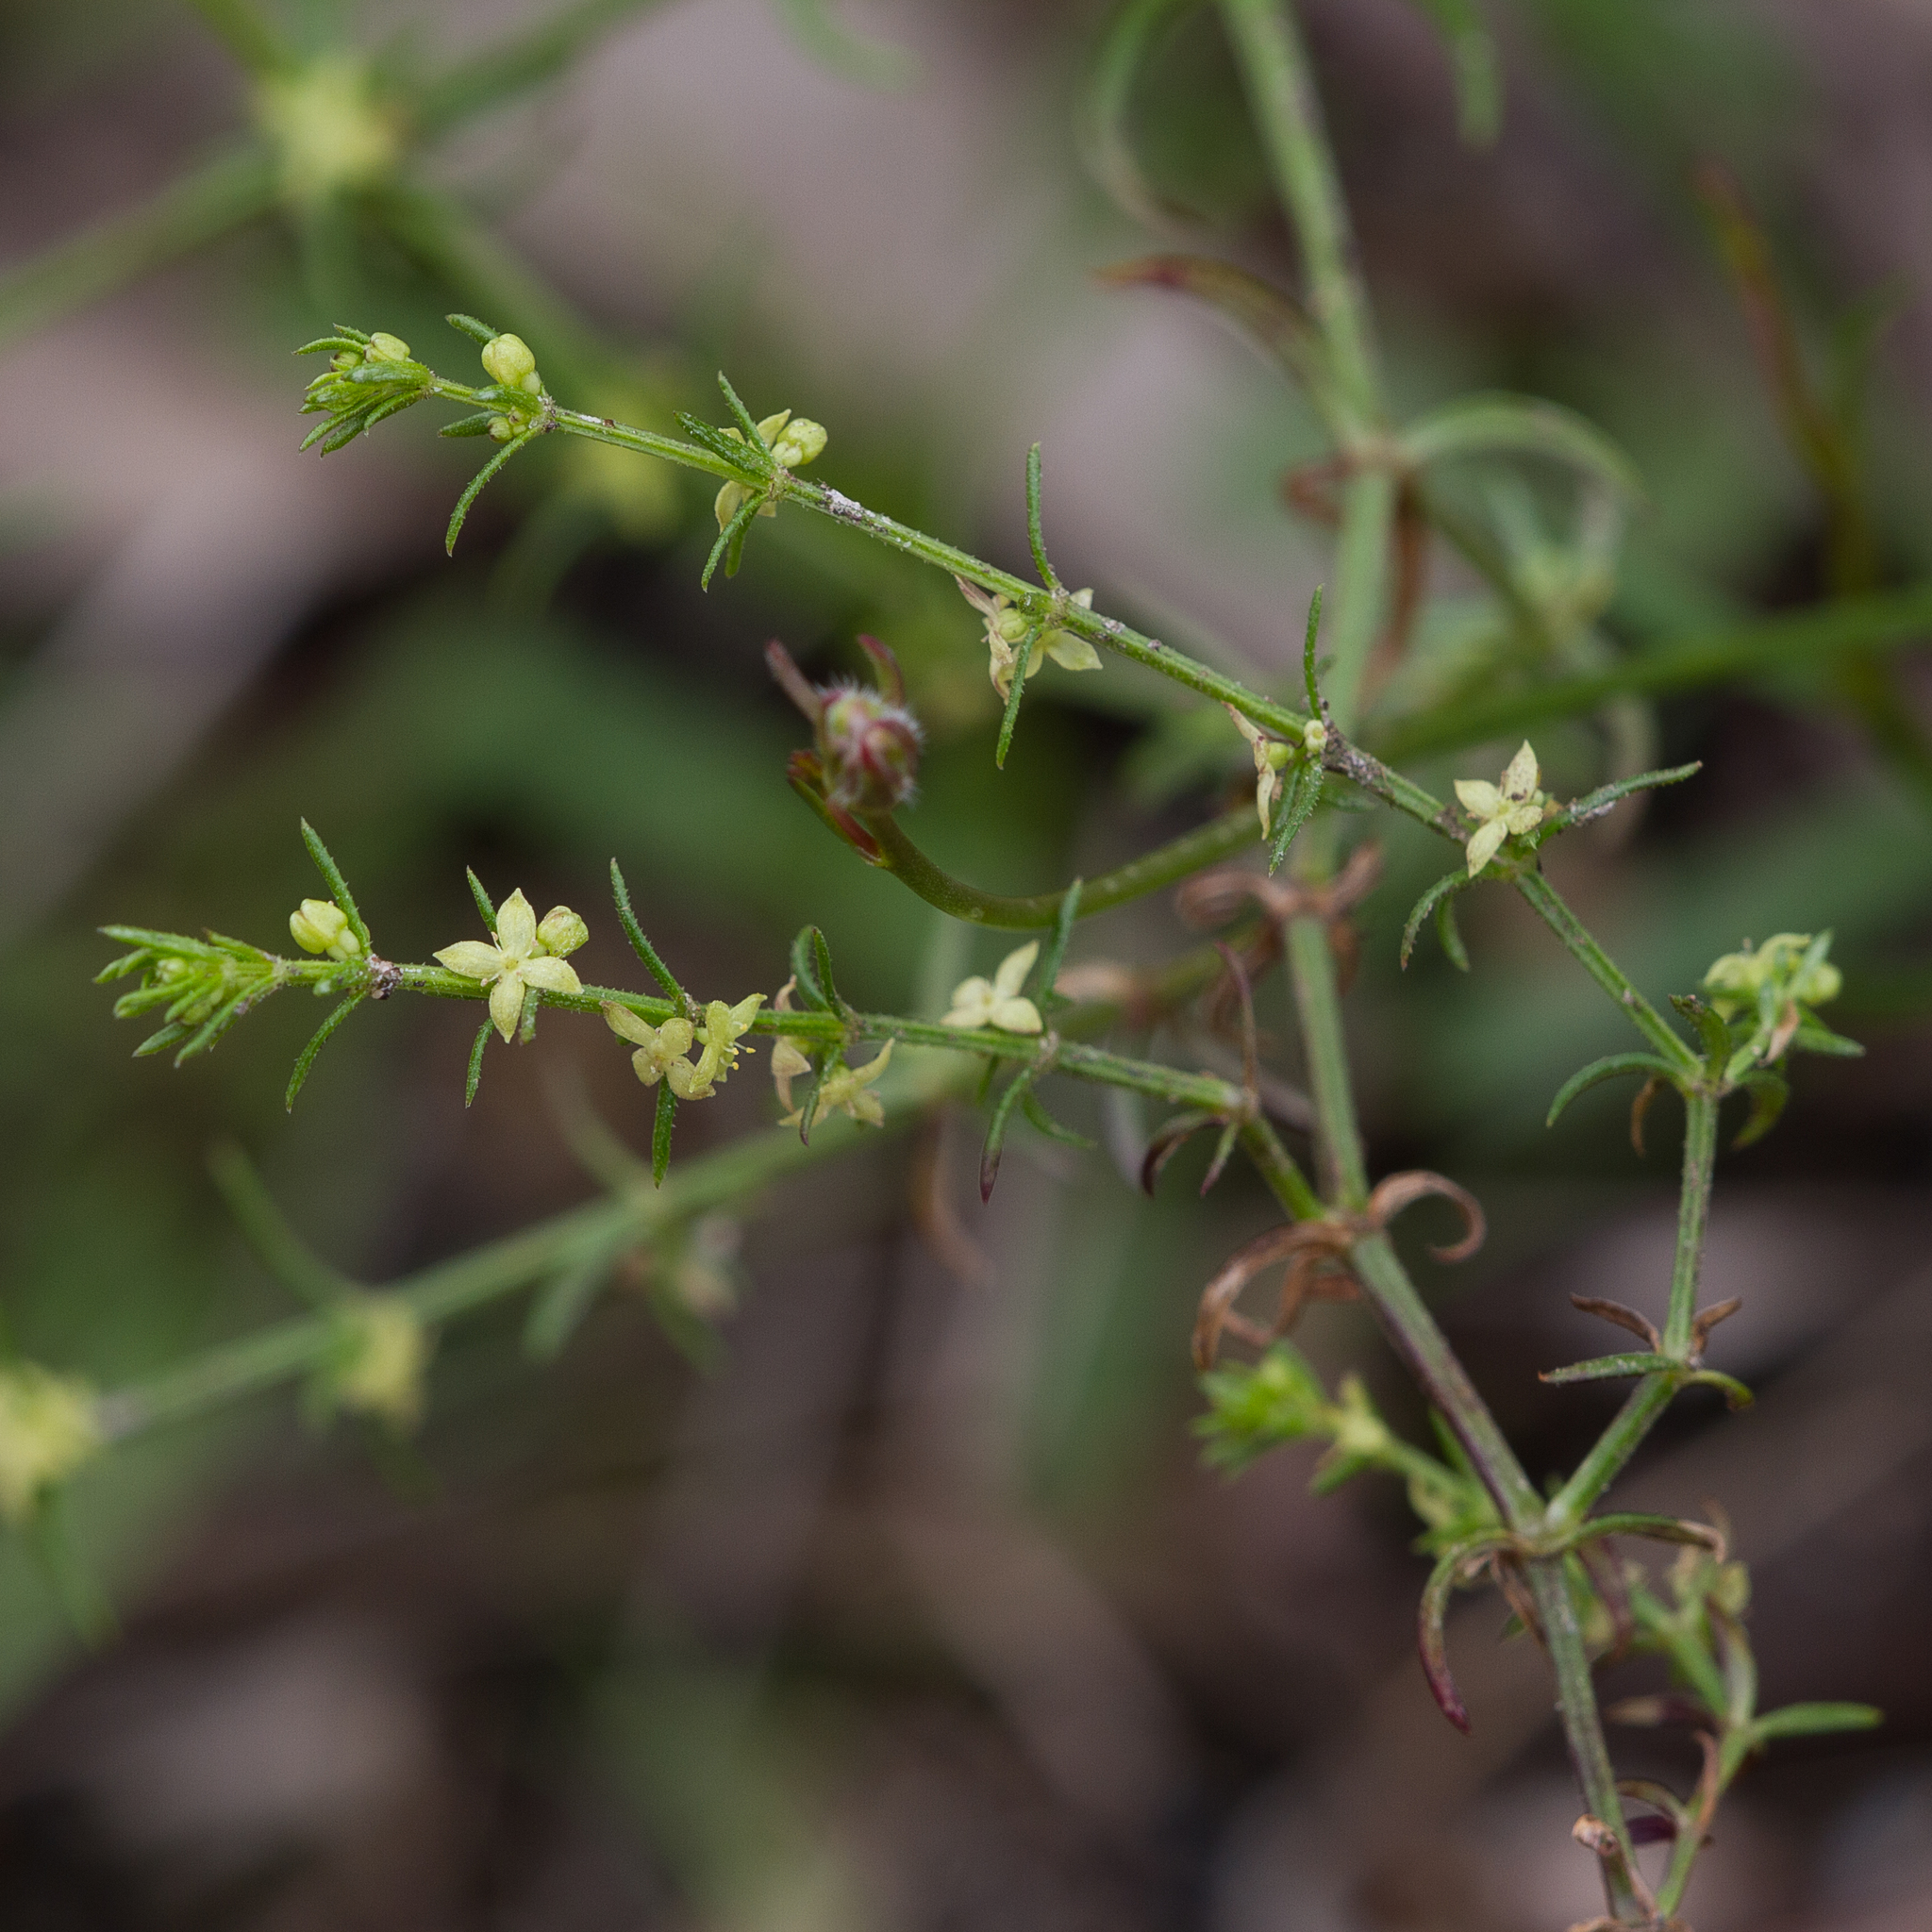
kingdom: Plantae
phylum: Tracheophyta
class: Magnoliopsida
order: Gentianales
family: Rubiaceae
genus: Galium
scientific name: Galium gaudichaudii
